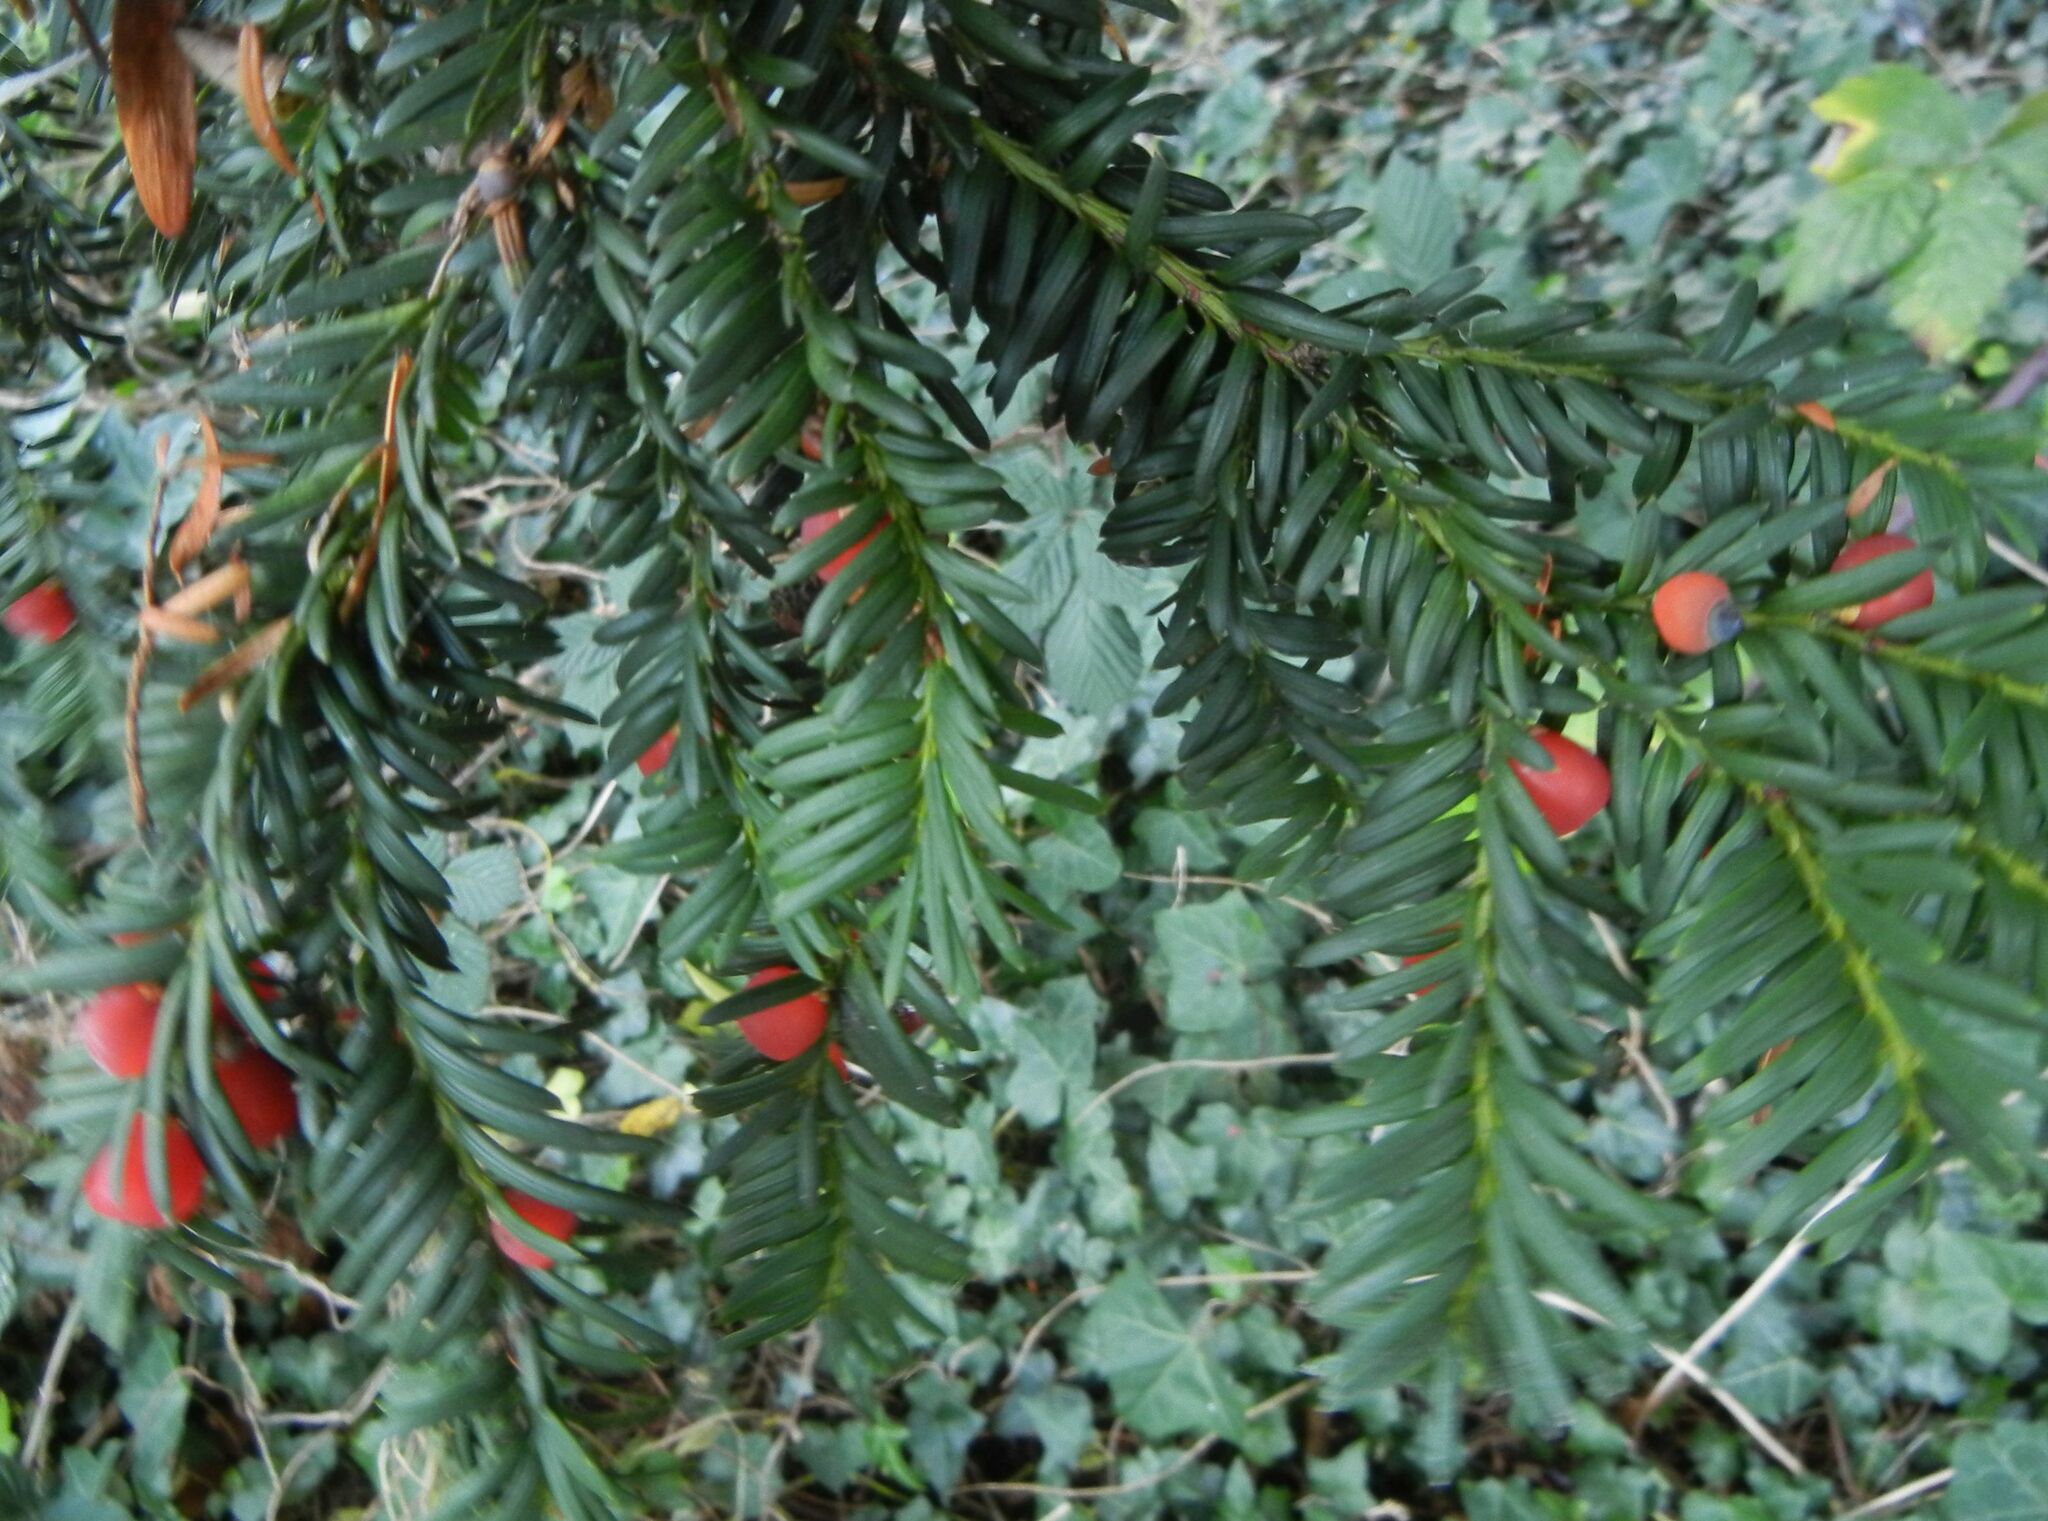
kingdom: Plantae
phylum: Tracheophyta
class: Pinopsida
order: Pinales
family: Taxaceae
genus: Taxus
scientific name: Taxus baccata
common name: Yew
